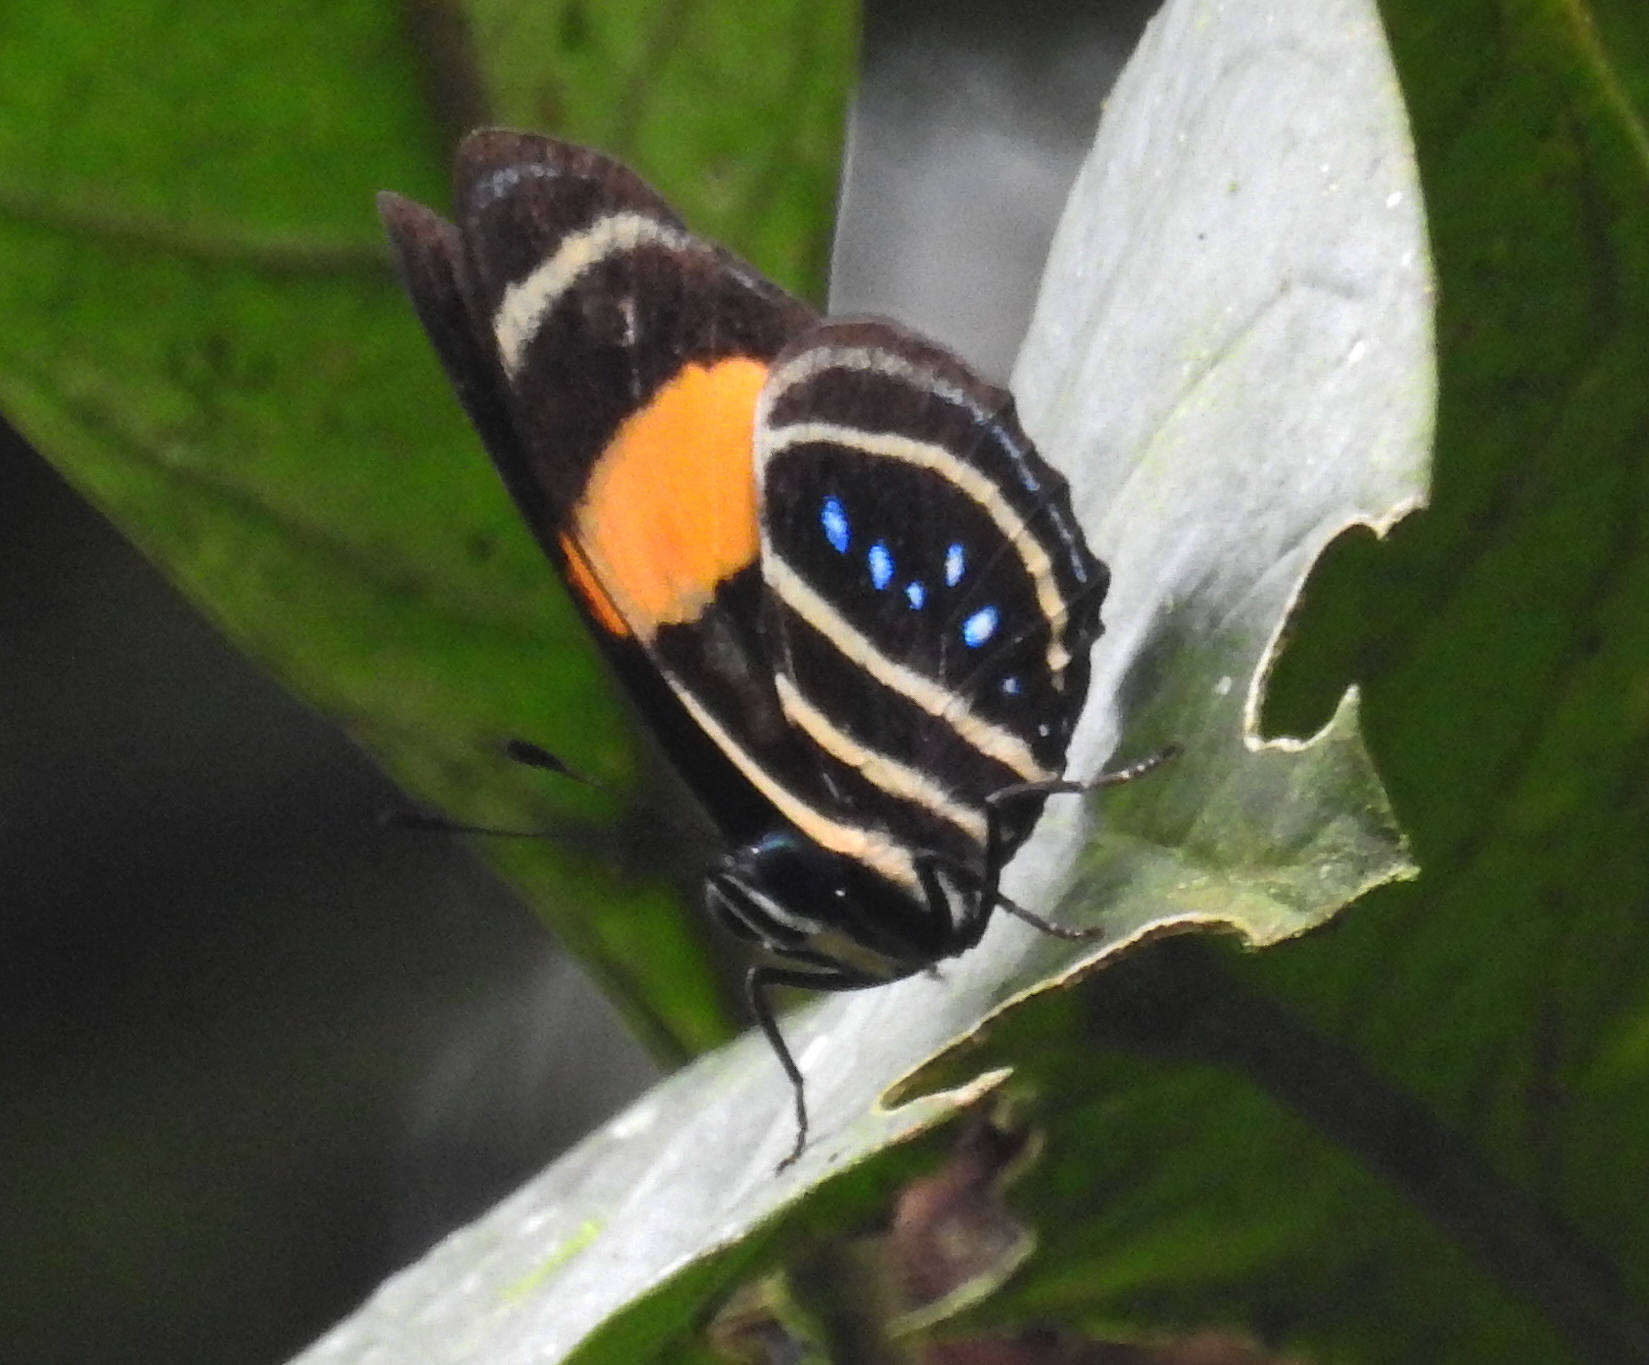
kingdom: Animalia
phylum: Arthropoda
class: Insecta
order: Lepidoptera
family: Nymphalidae
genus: Catagramma
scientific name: Catagramma Callicore lyca
